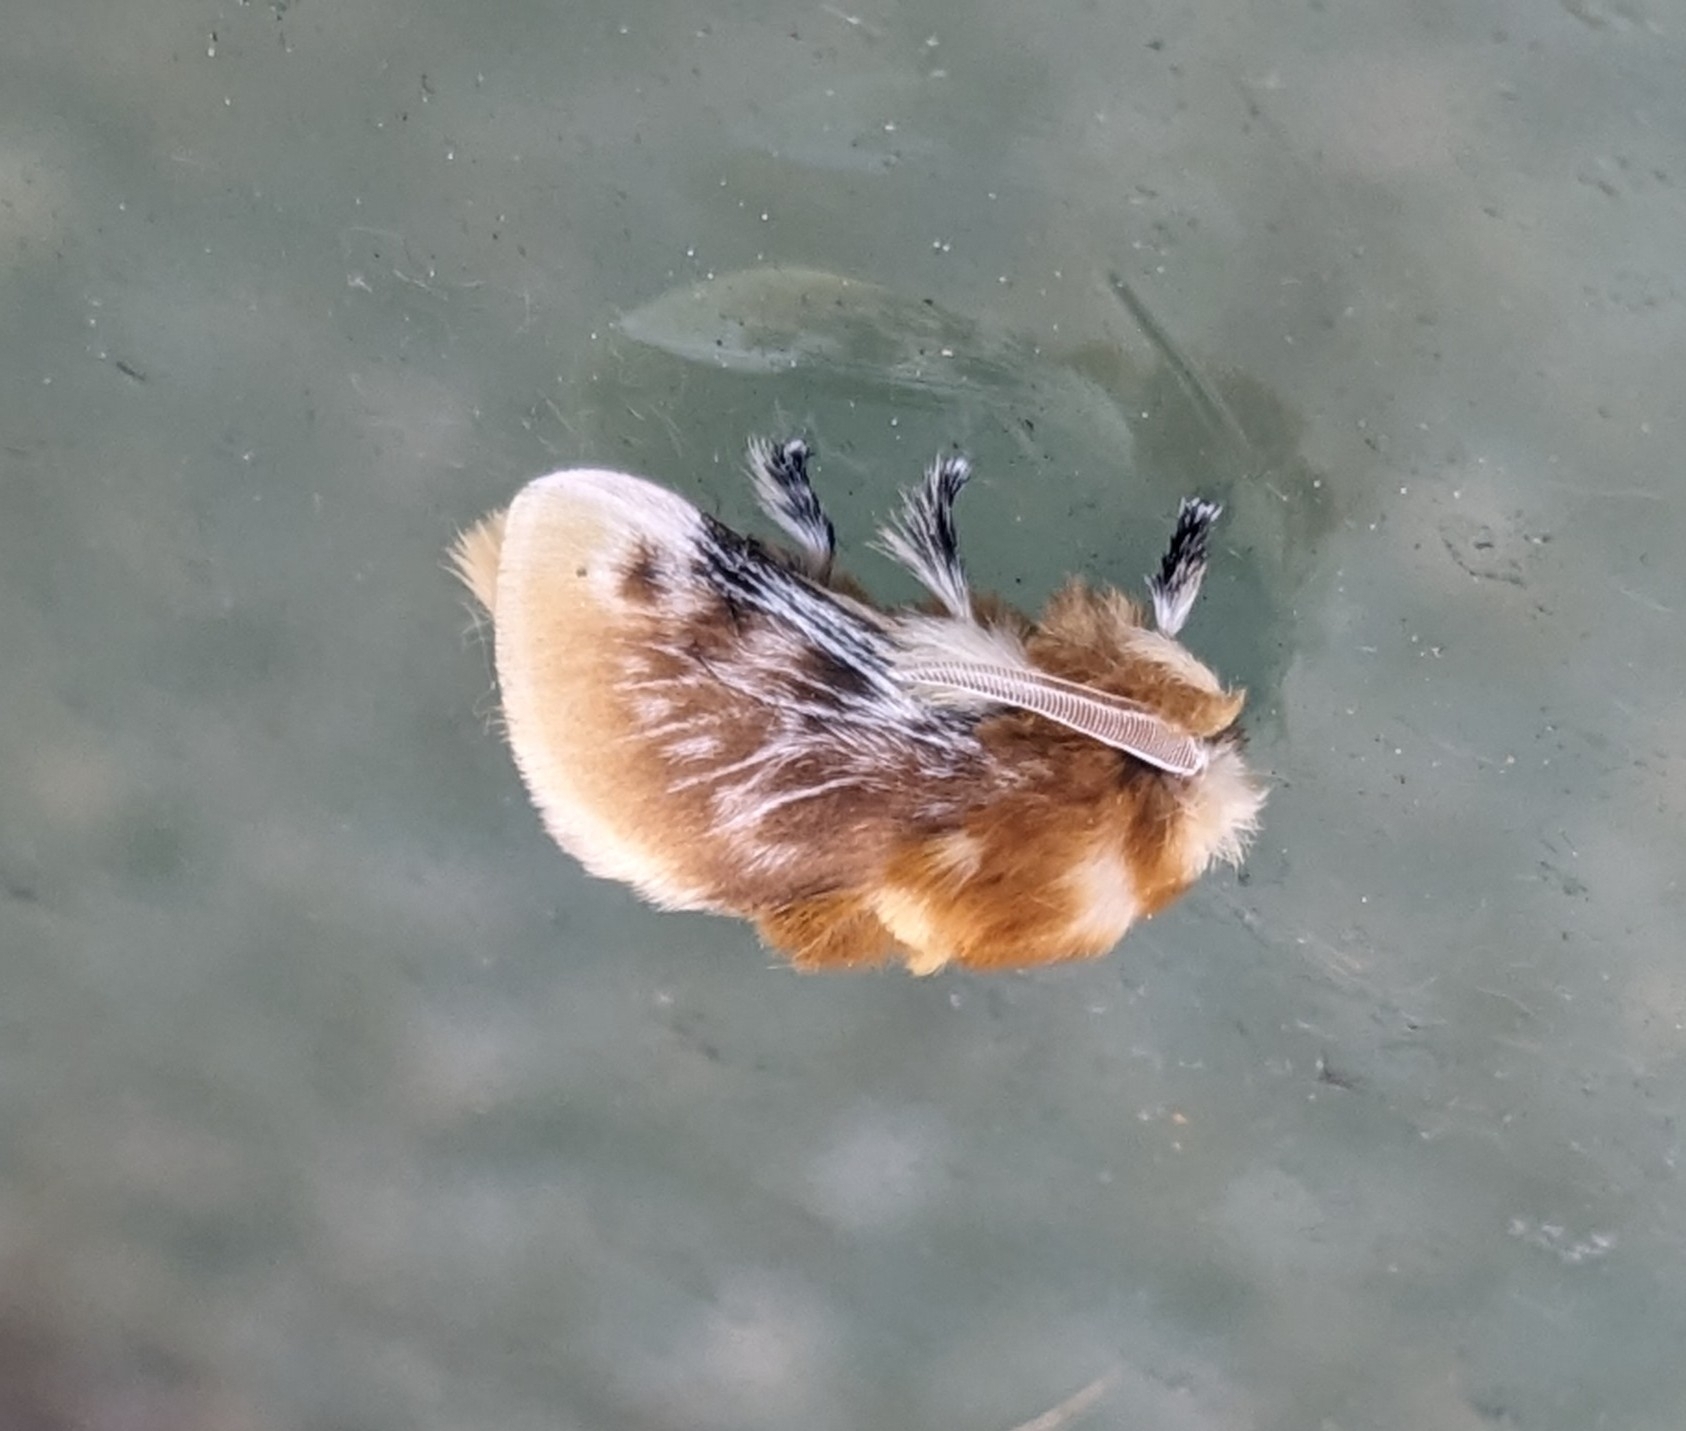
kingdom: Animalia
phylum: Arthropoda
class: Insecta
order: Lepidoptera
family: Megalopygidae
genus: Megalopyge
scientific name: Megalopyge opercularis
